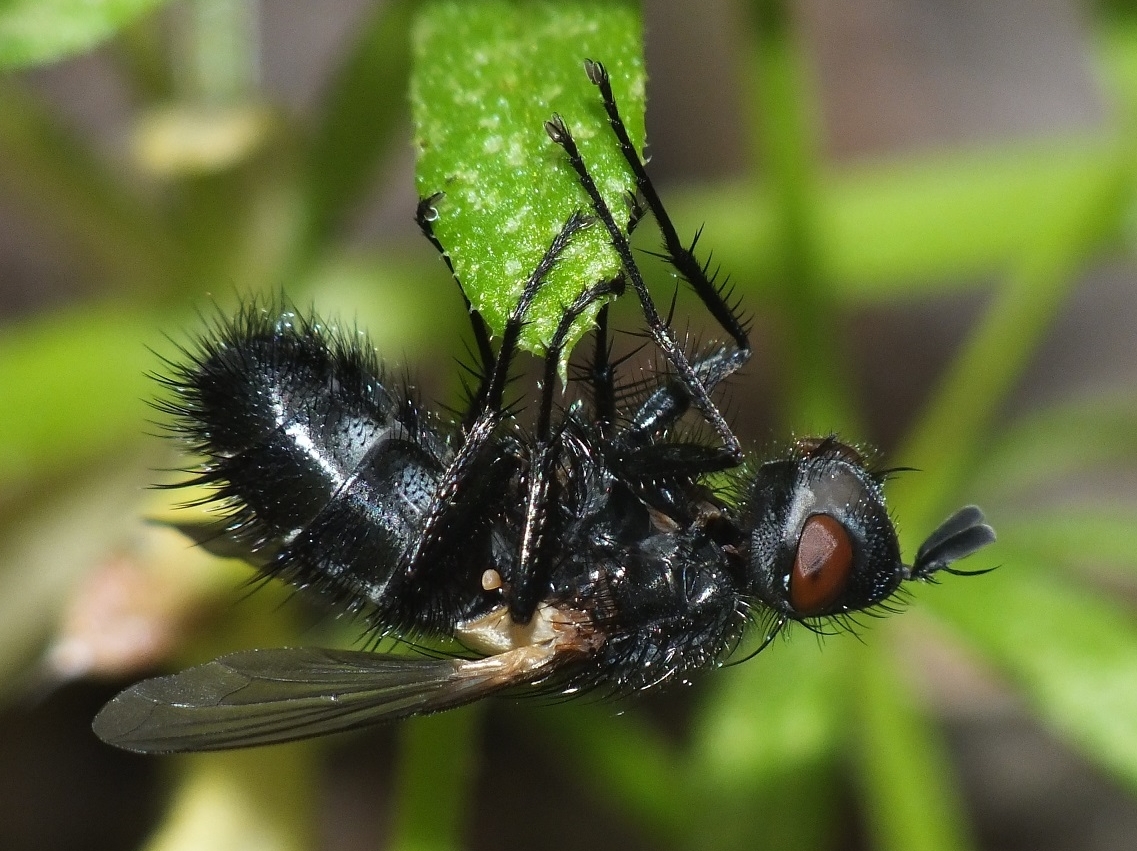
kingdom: Animalia
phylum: Arthropoda
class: Insecta
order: Diptera
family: Tachinidae
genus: Pseudopachystylum
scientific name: Pseudopachystylum gonioides
